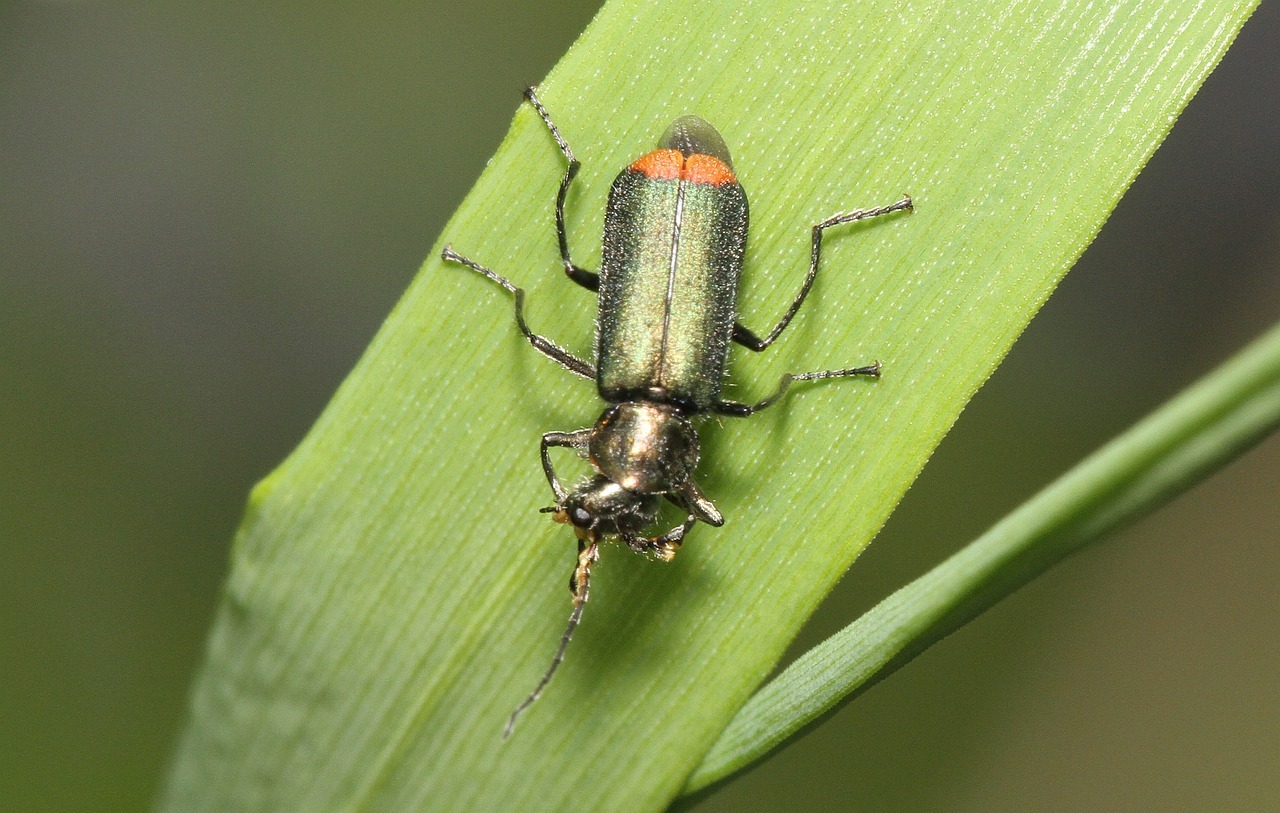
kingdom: Animalia
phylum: Arthropoda
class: Insecta
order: Coleoptera
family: Melyridae
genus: Malachius
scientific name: Malachius bipustulatus
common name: Malachite beetle
